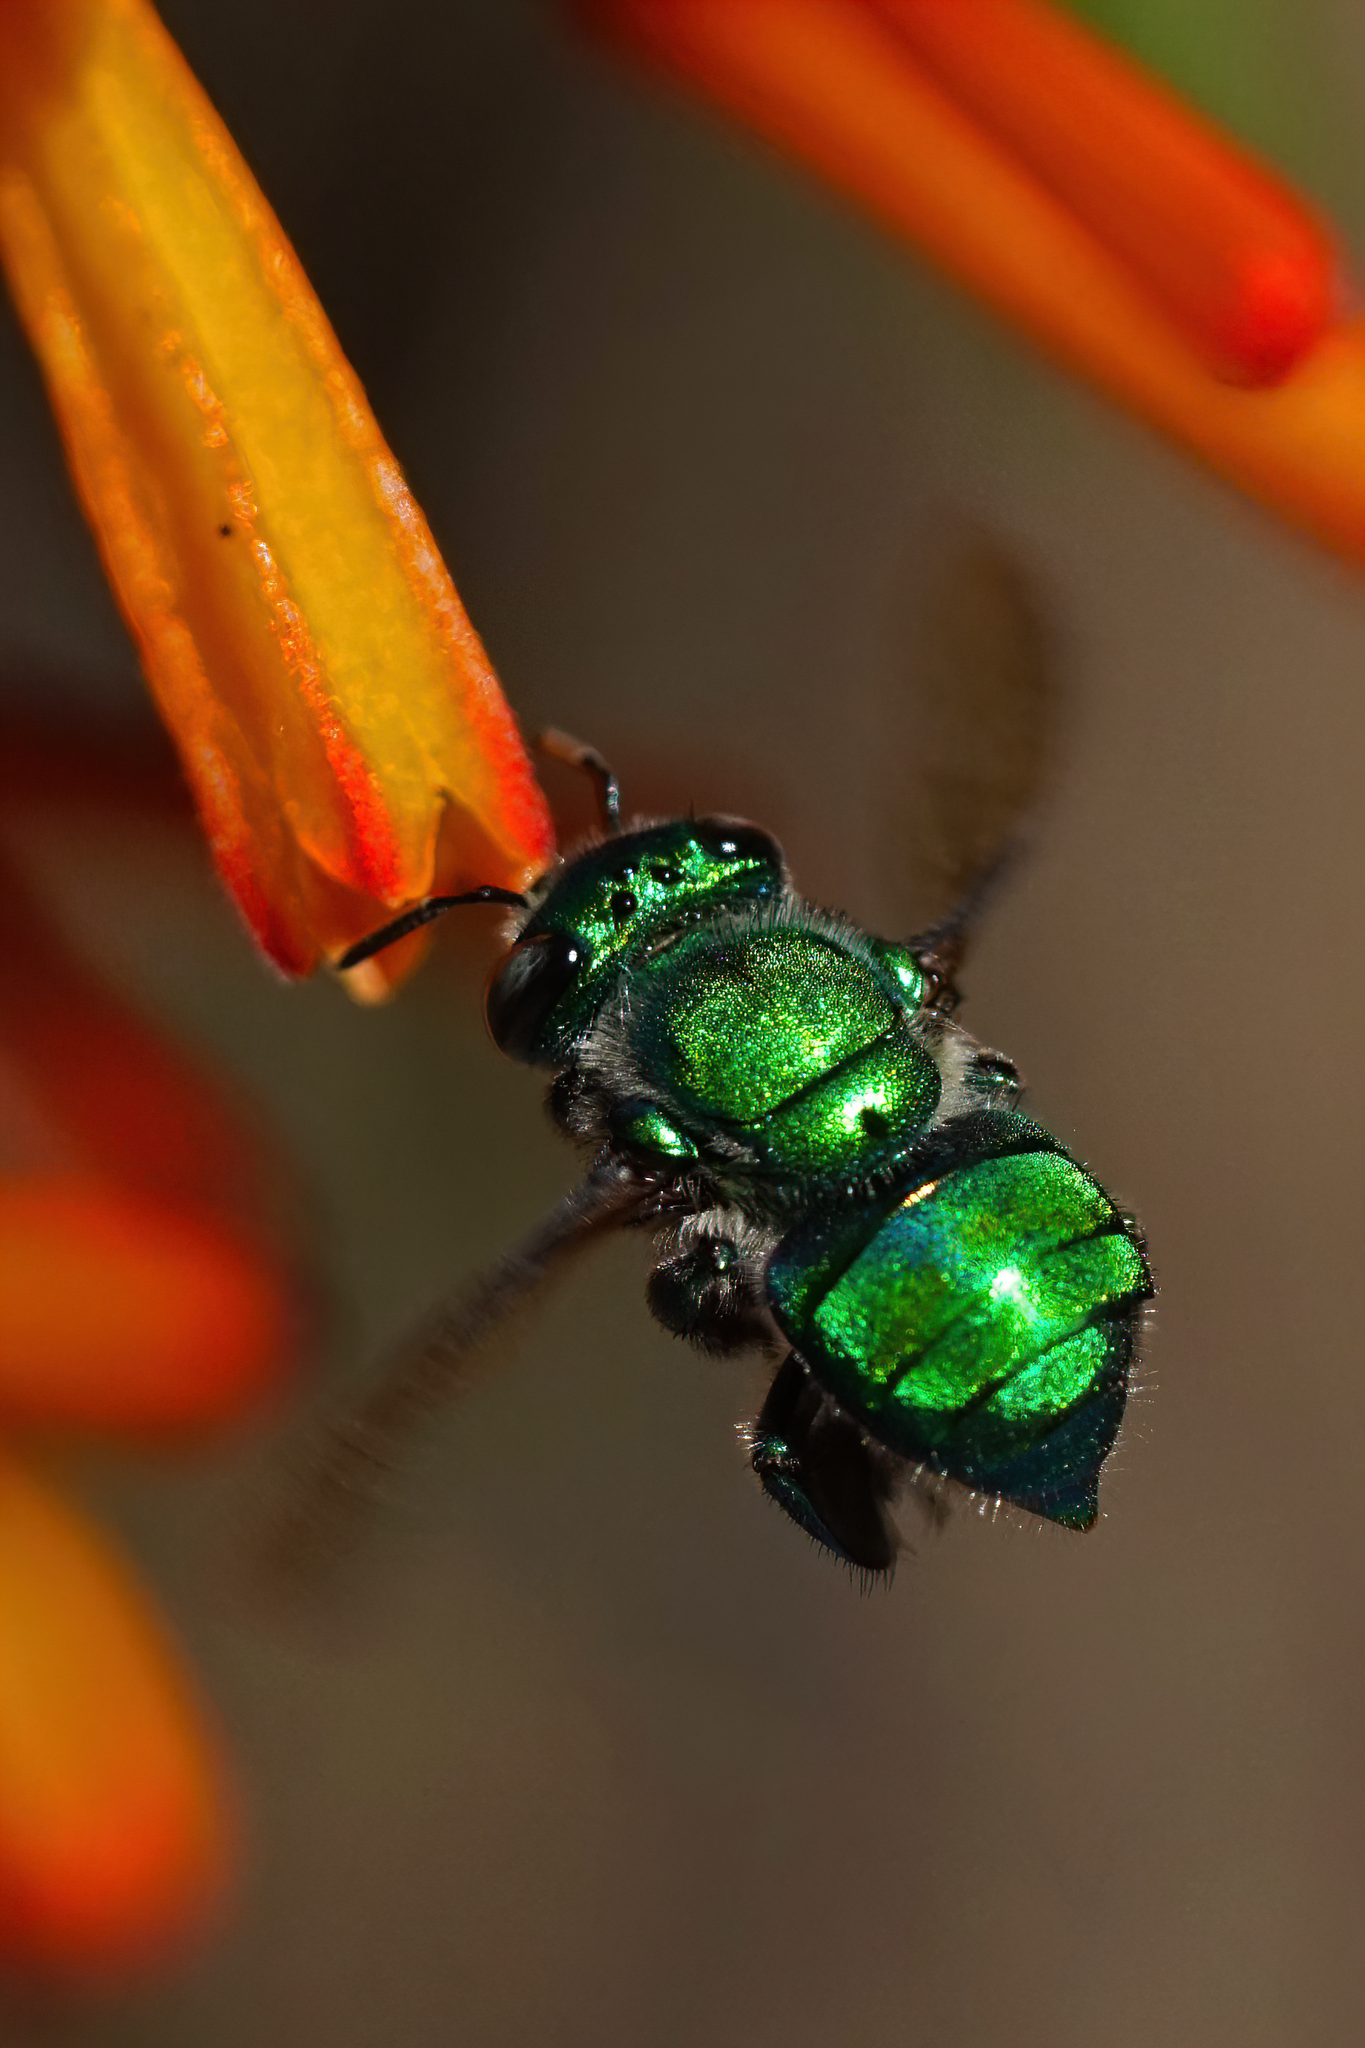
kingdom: Animalia
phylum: Arthropoda
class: Insecta
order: Hymenoptera
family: Apidae
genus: Euglossa
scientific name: Euglossa dilemma
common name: Green orchid bee
